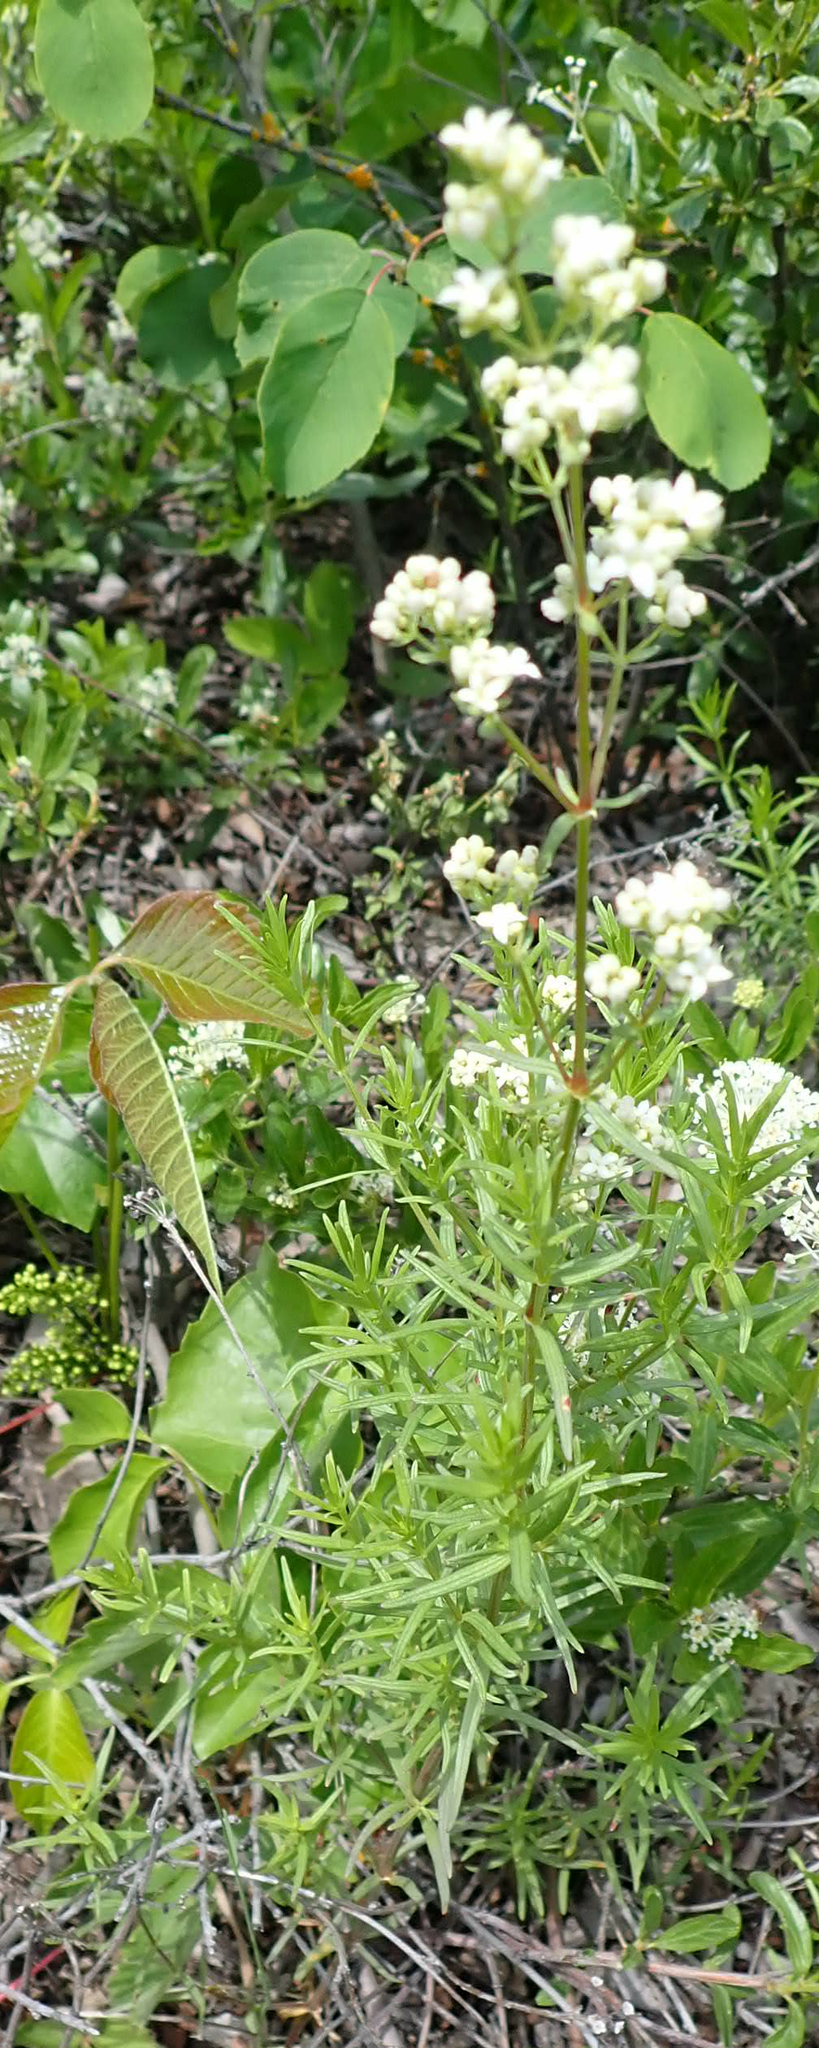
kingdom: Plantae
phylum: Tracheophyta
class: Magnoliopsida
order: Gentianales
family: Rubiaceae
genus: Galium
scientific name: Galium boreale
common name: Northern bedstraw
